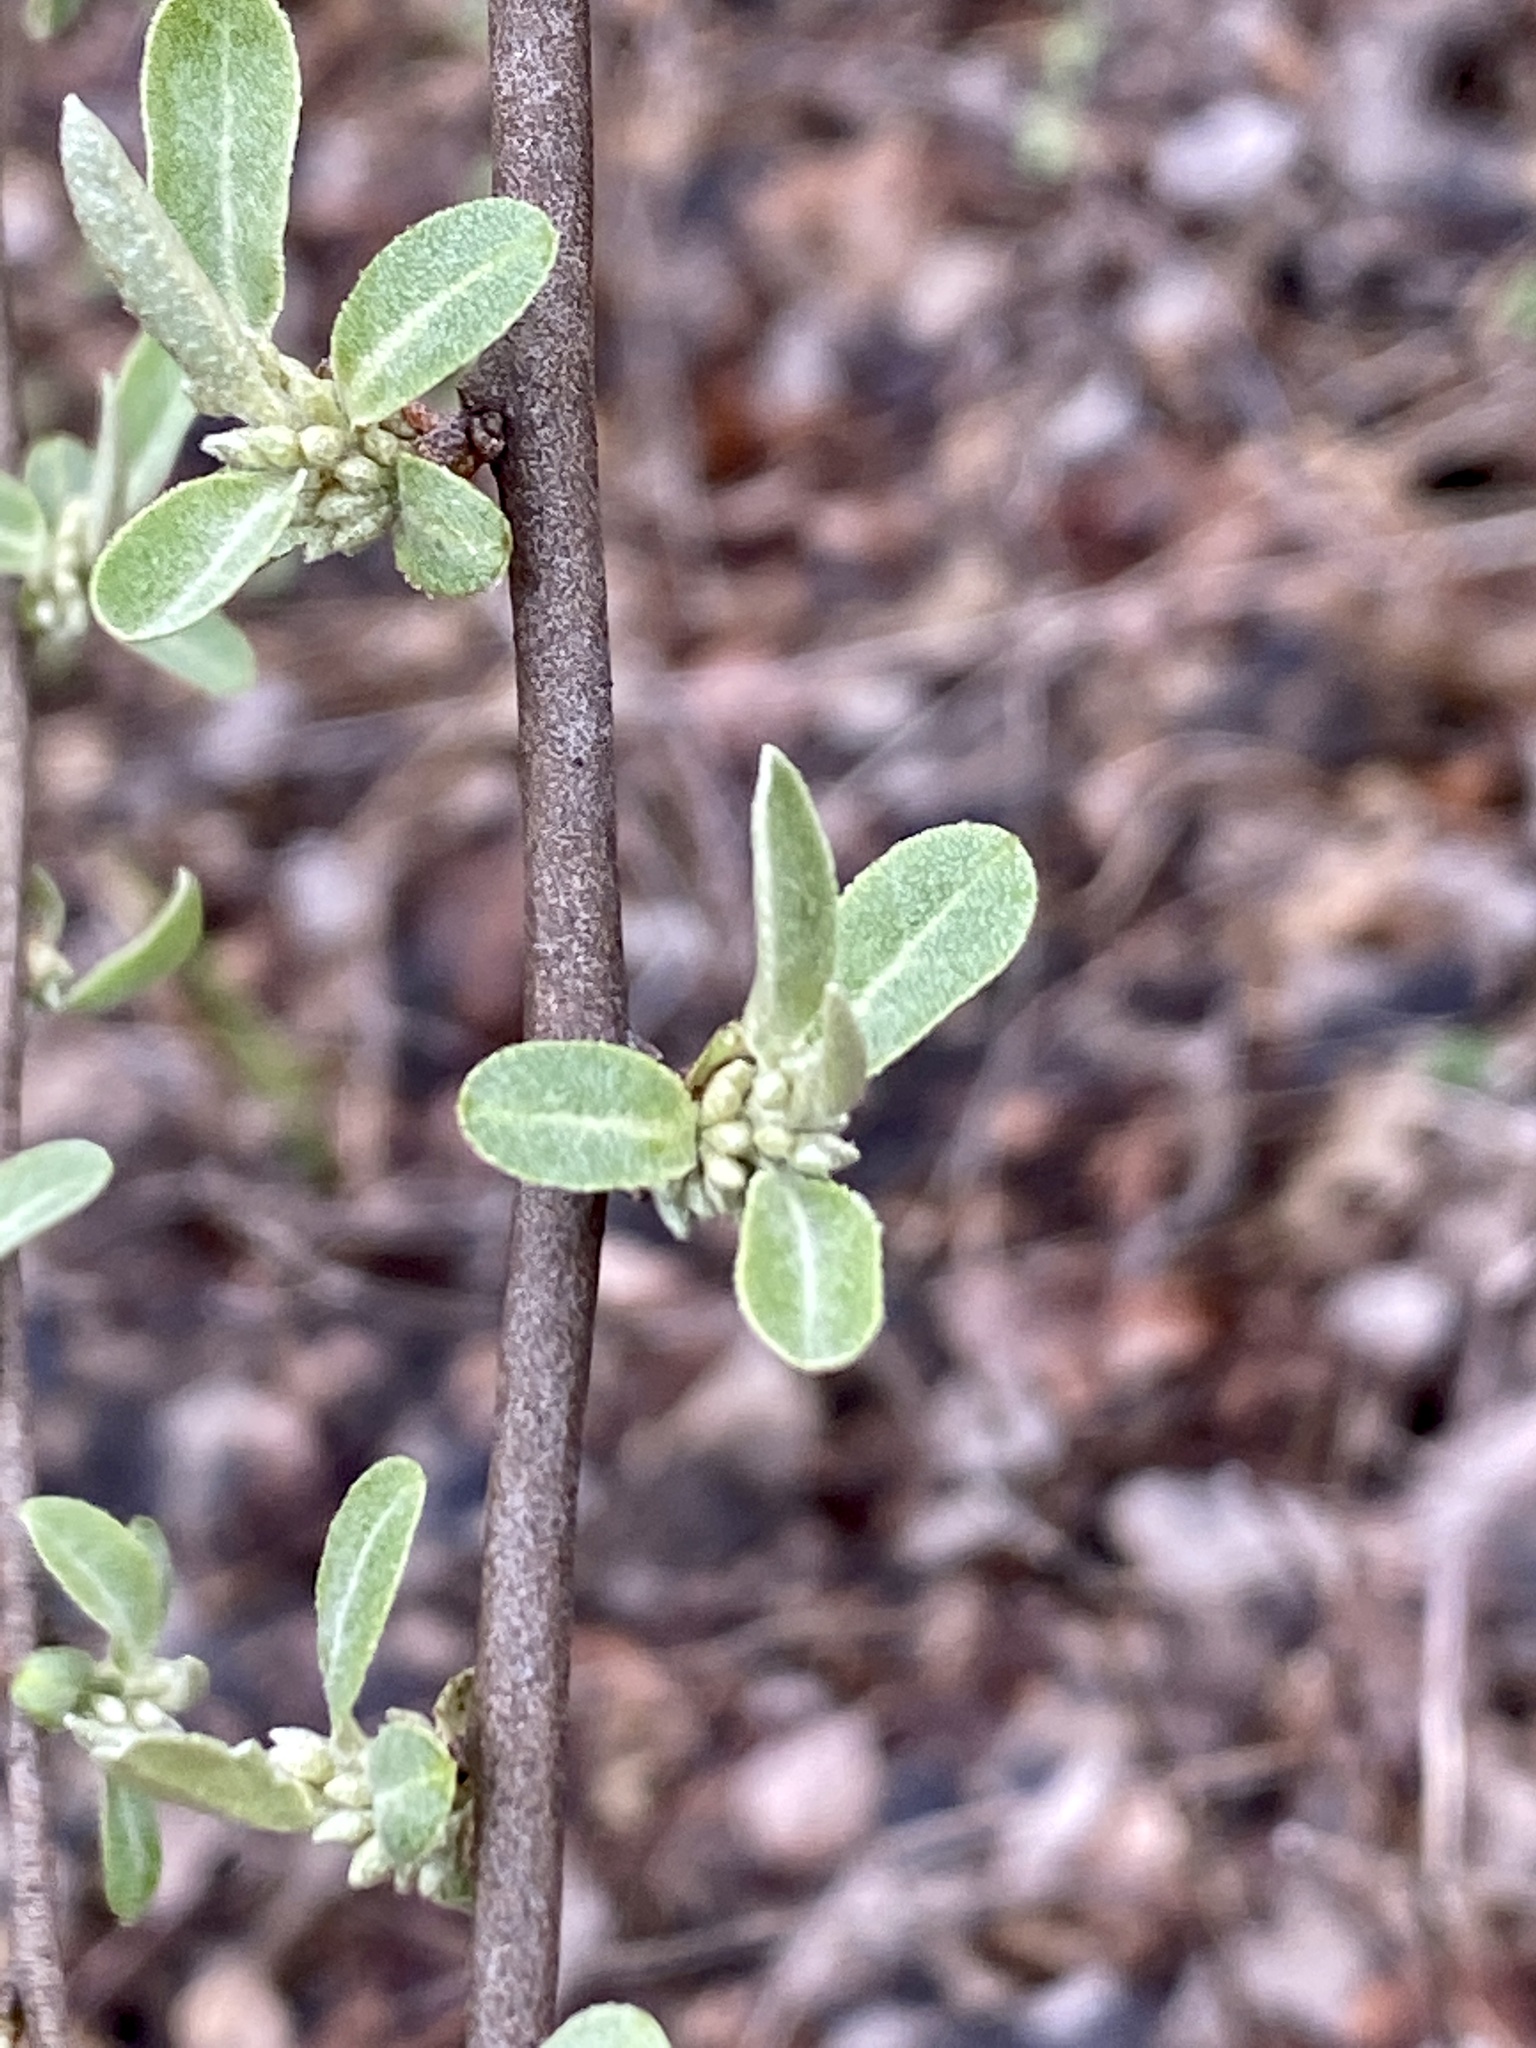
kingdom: Plantae
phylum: Tracheophyta
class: Magnoliopsida
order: Rosales
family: Elaeagnaceae
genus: Elaeagnus
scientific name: Elaeagnus umbellata
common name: Autumn olive
